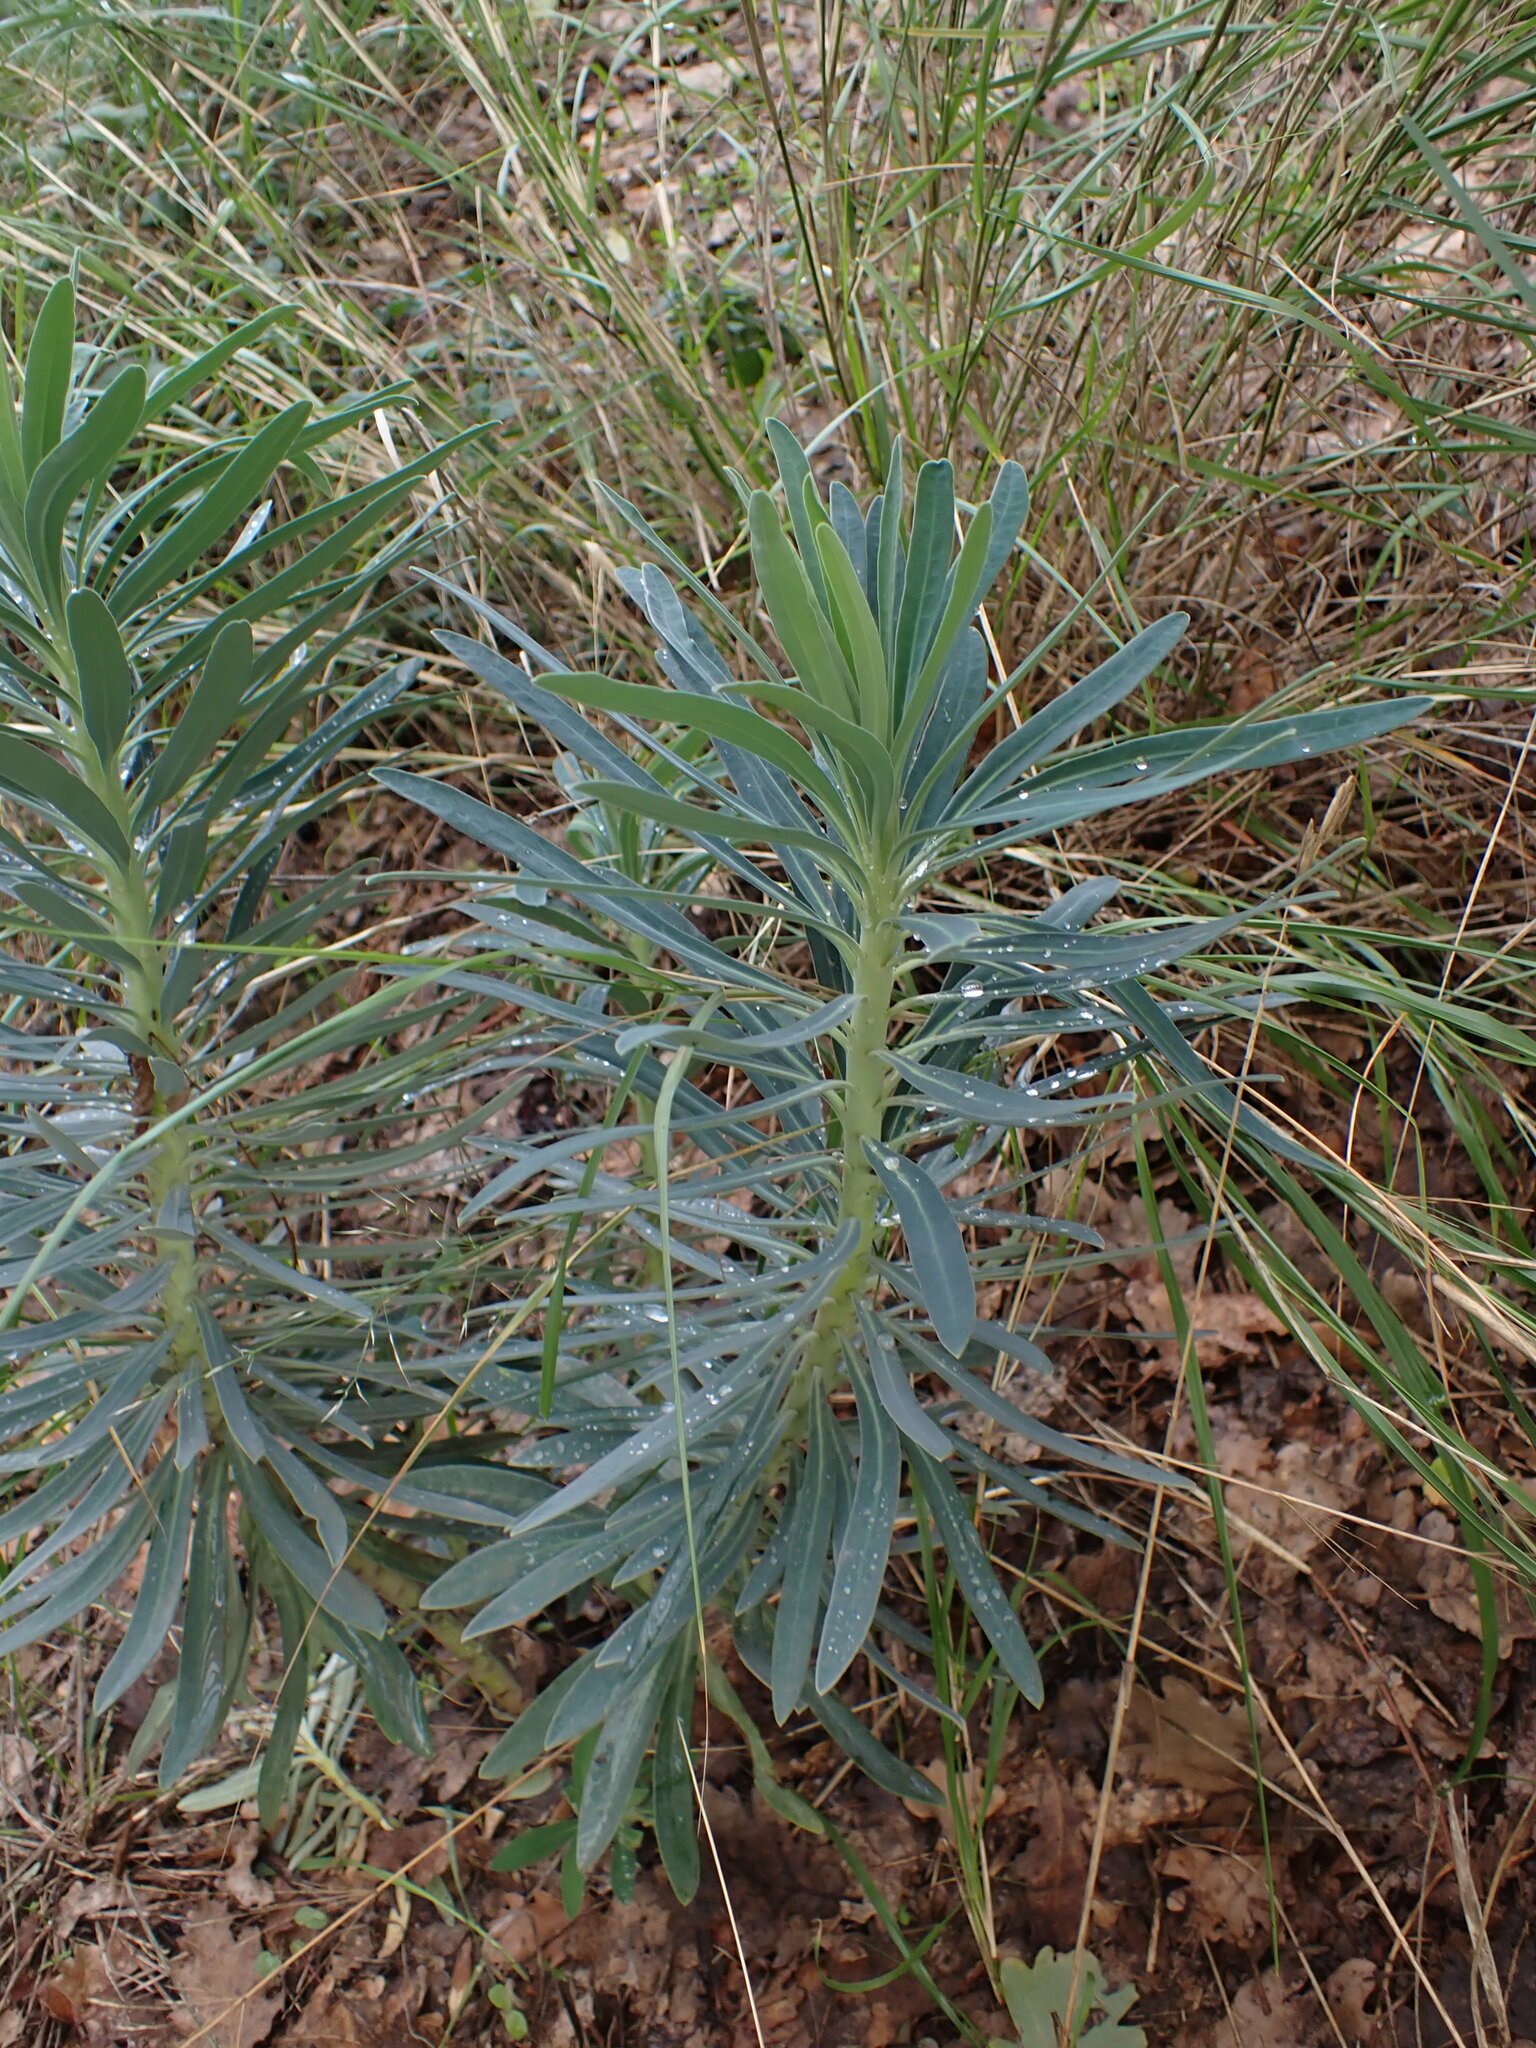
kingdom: Plantae
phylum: Tracheophyta
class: Magnoliopsida
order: Malpighiales
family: Euphorbiaceae
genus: Euphorbia
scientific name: Euphorbia characias
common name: Mediterranean spurge
